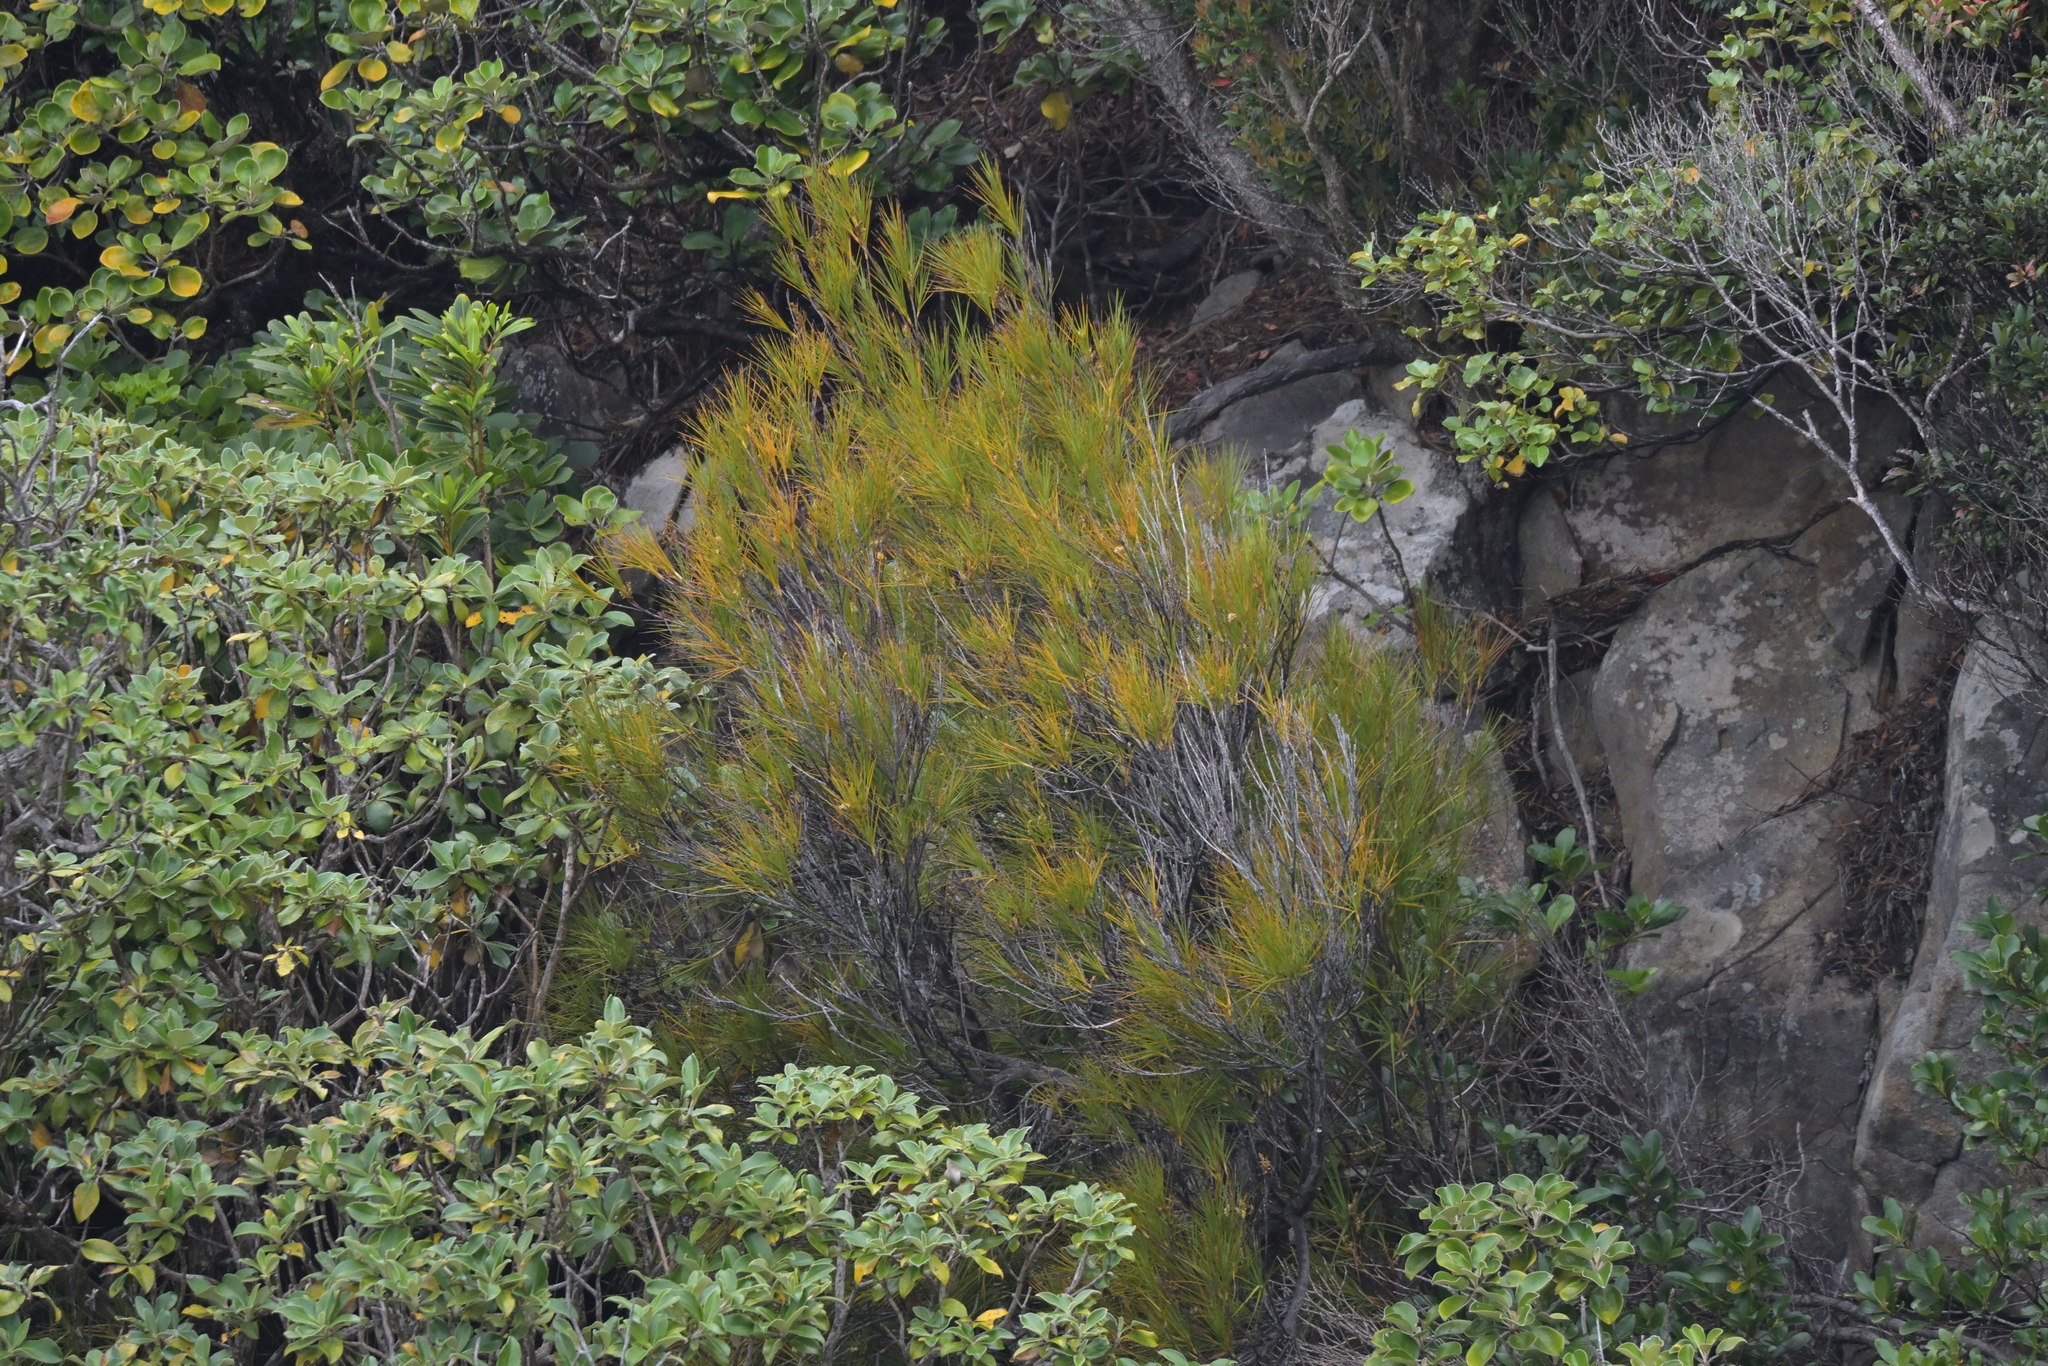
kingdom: Plantae
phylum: Tracheophyta
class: Magnoliopsida
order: Ericales
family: Ericaceae
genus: Dracophyllum
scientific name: Dracophyllum longifolium
